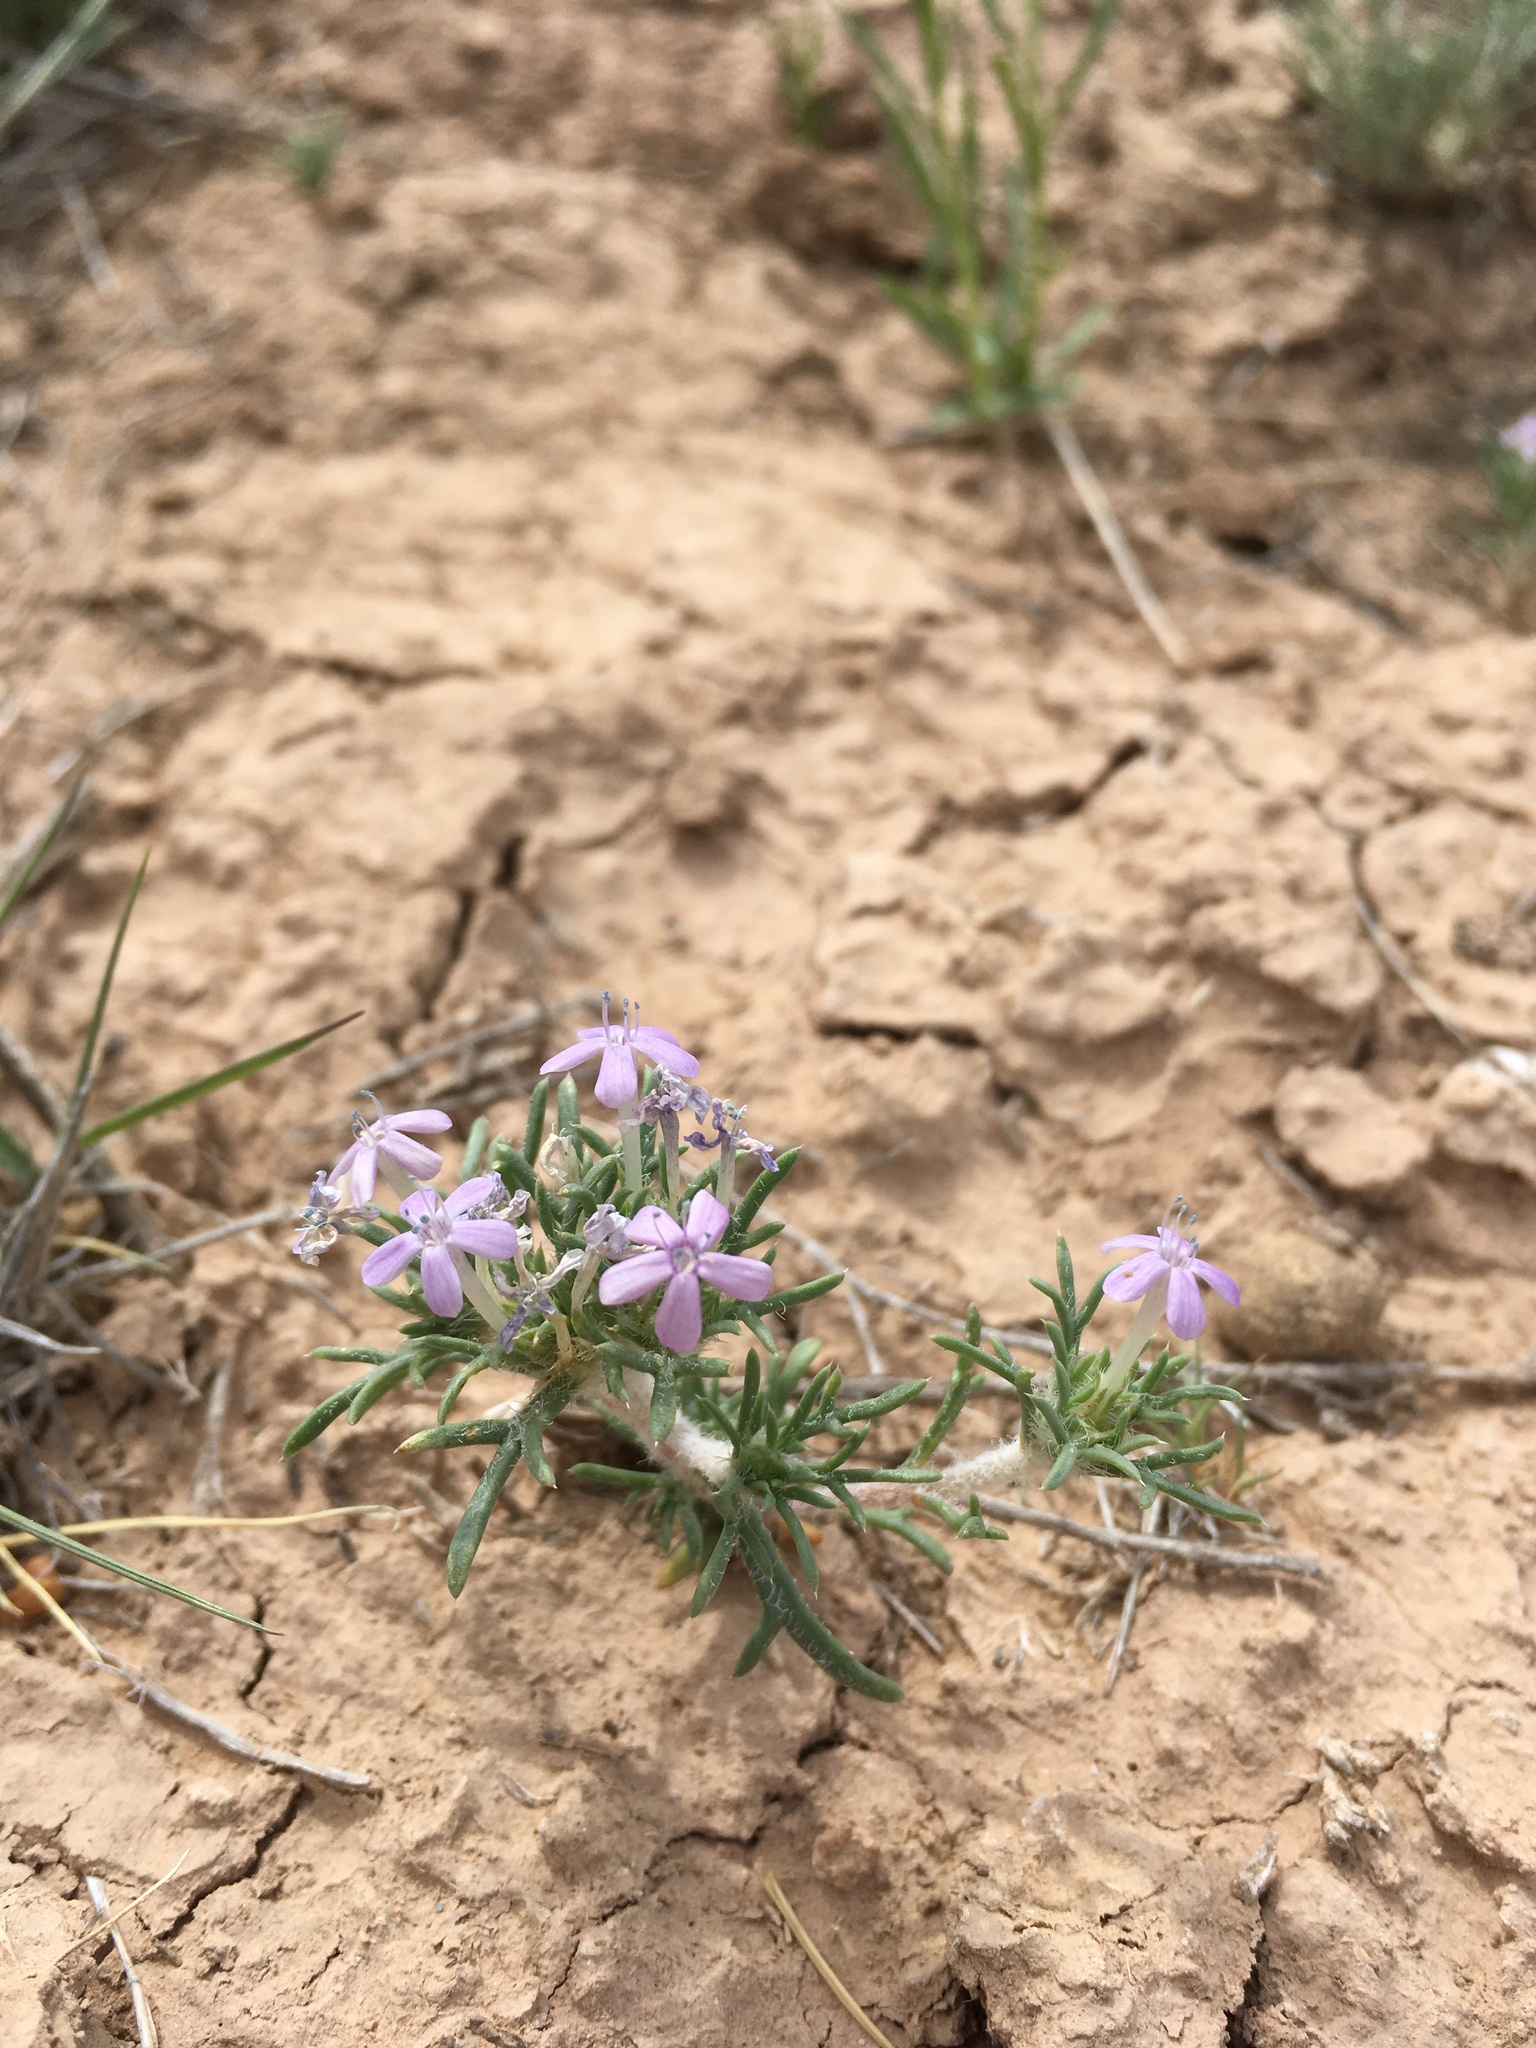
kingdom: Plantae
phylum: Tracheophyta
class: Magnoliopsida
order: Ericales
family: Polemoniaceae
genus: Ipomopsis
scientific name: Ipomopsis pumila
